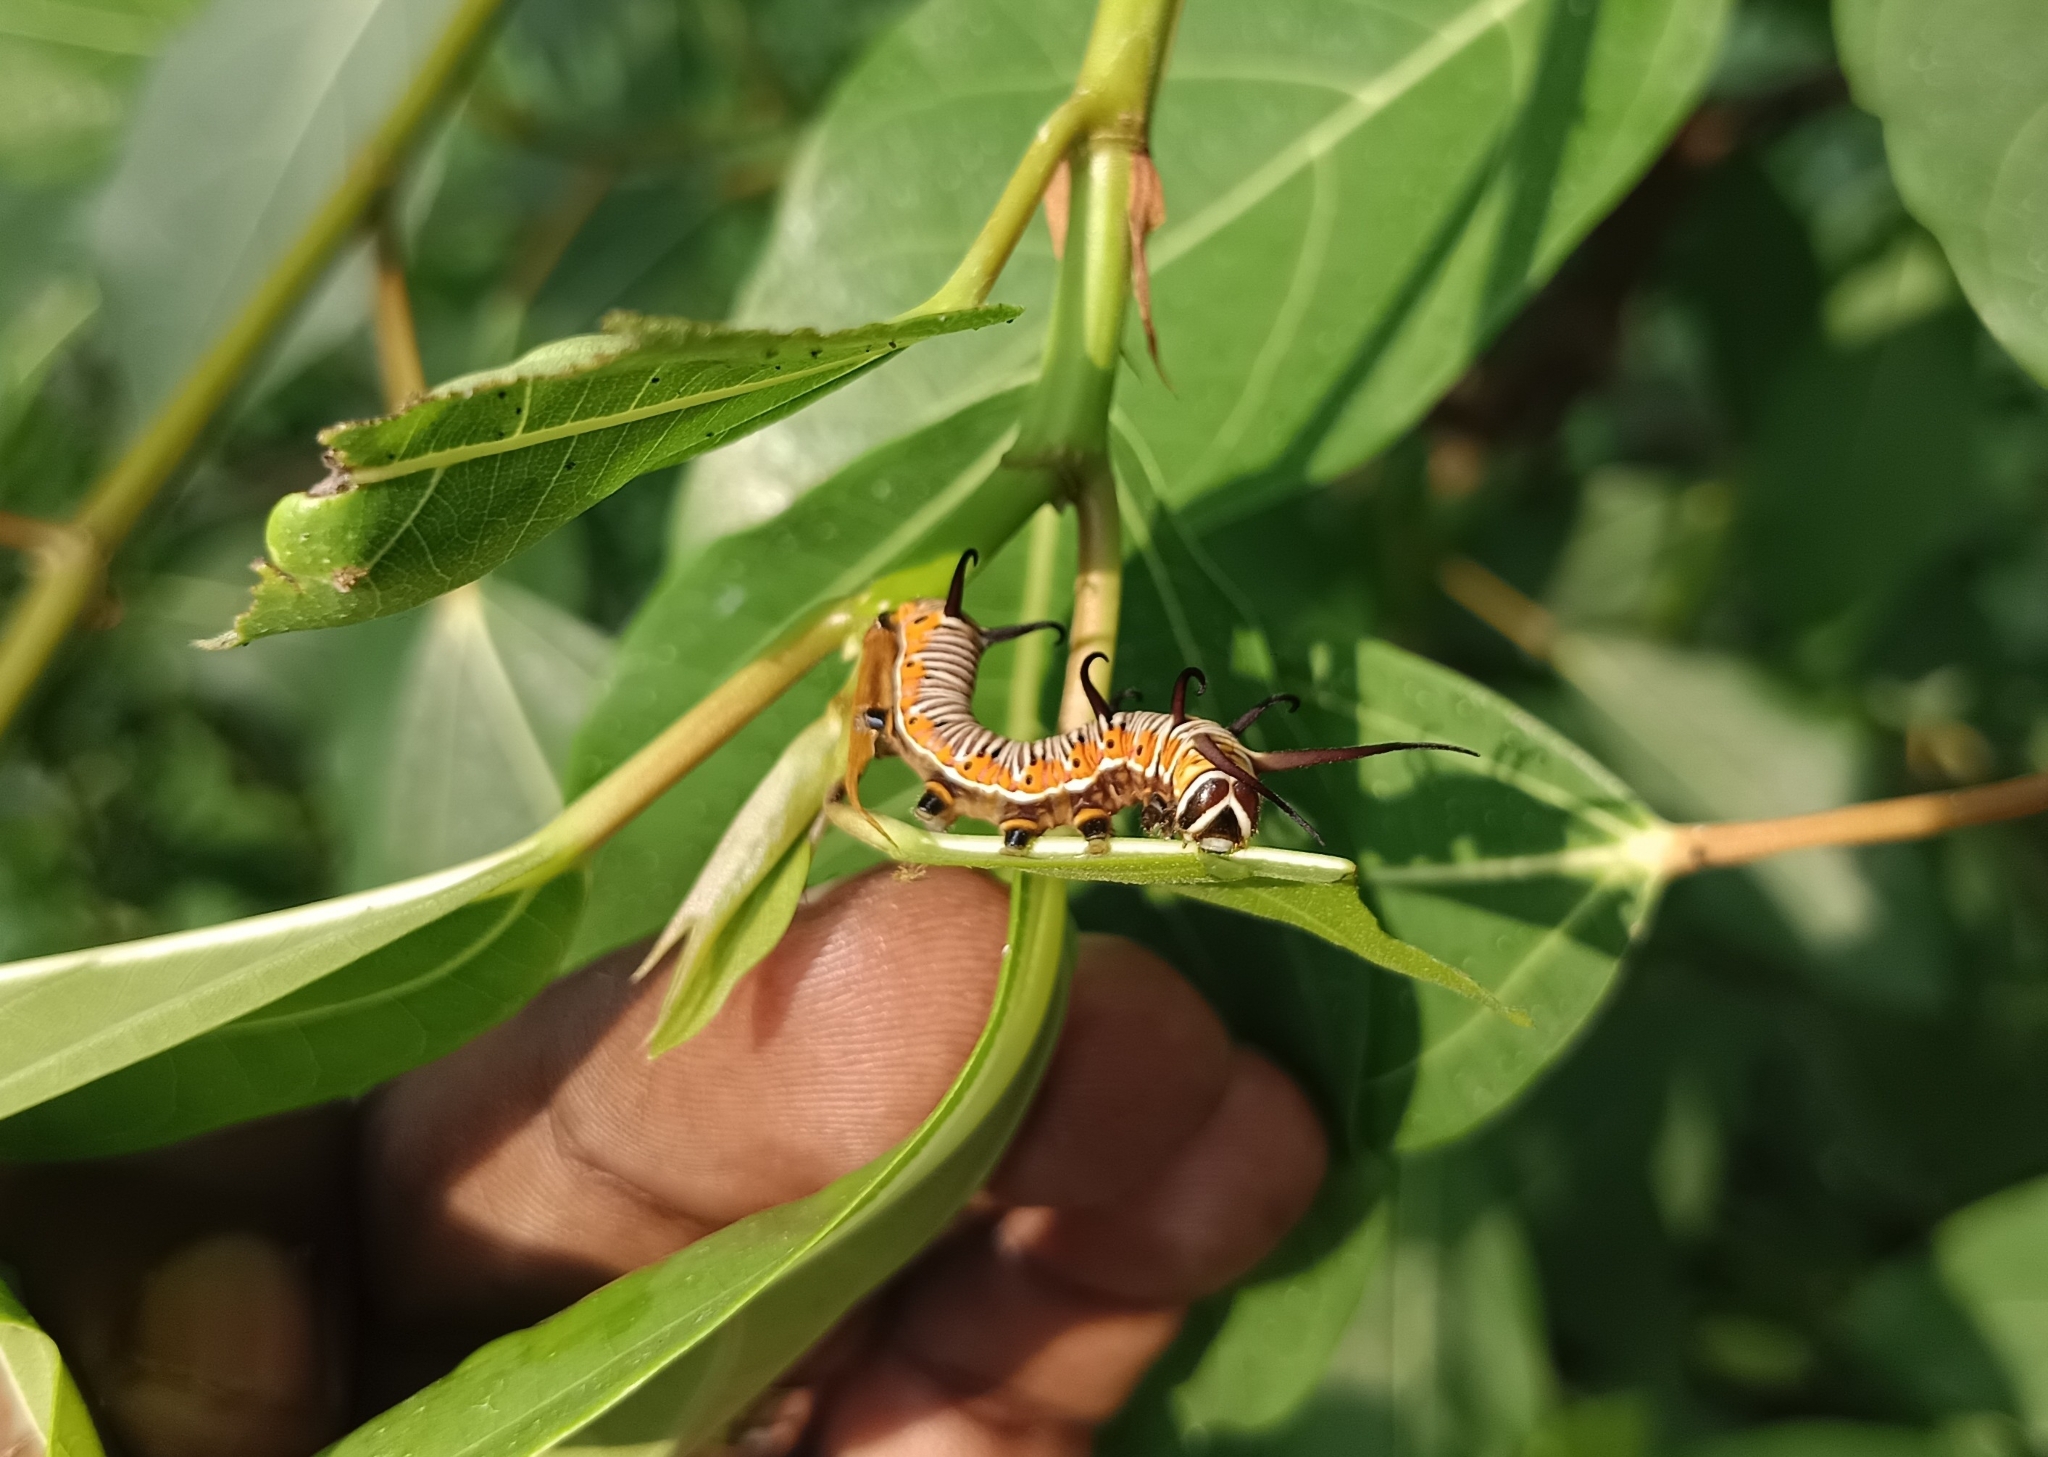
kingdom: Animalia
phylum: Arthropoda
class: Insecta
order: Lepidoptera
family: Nymphalidae
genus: Euploea
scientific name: Euploea core
